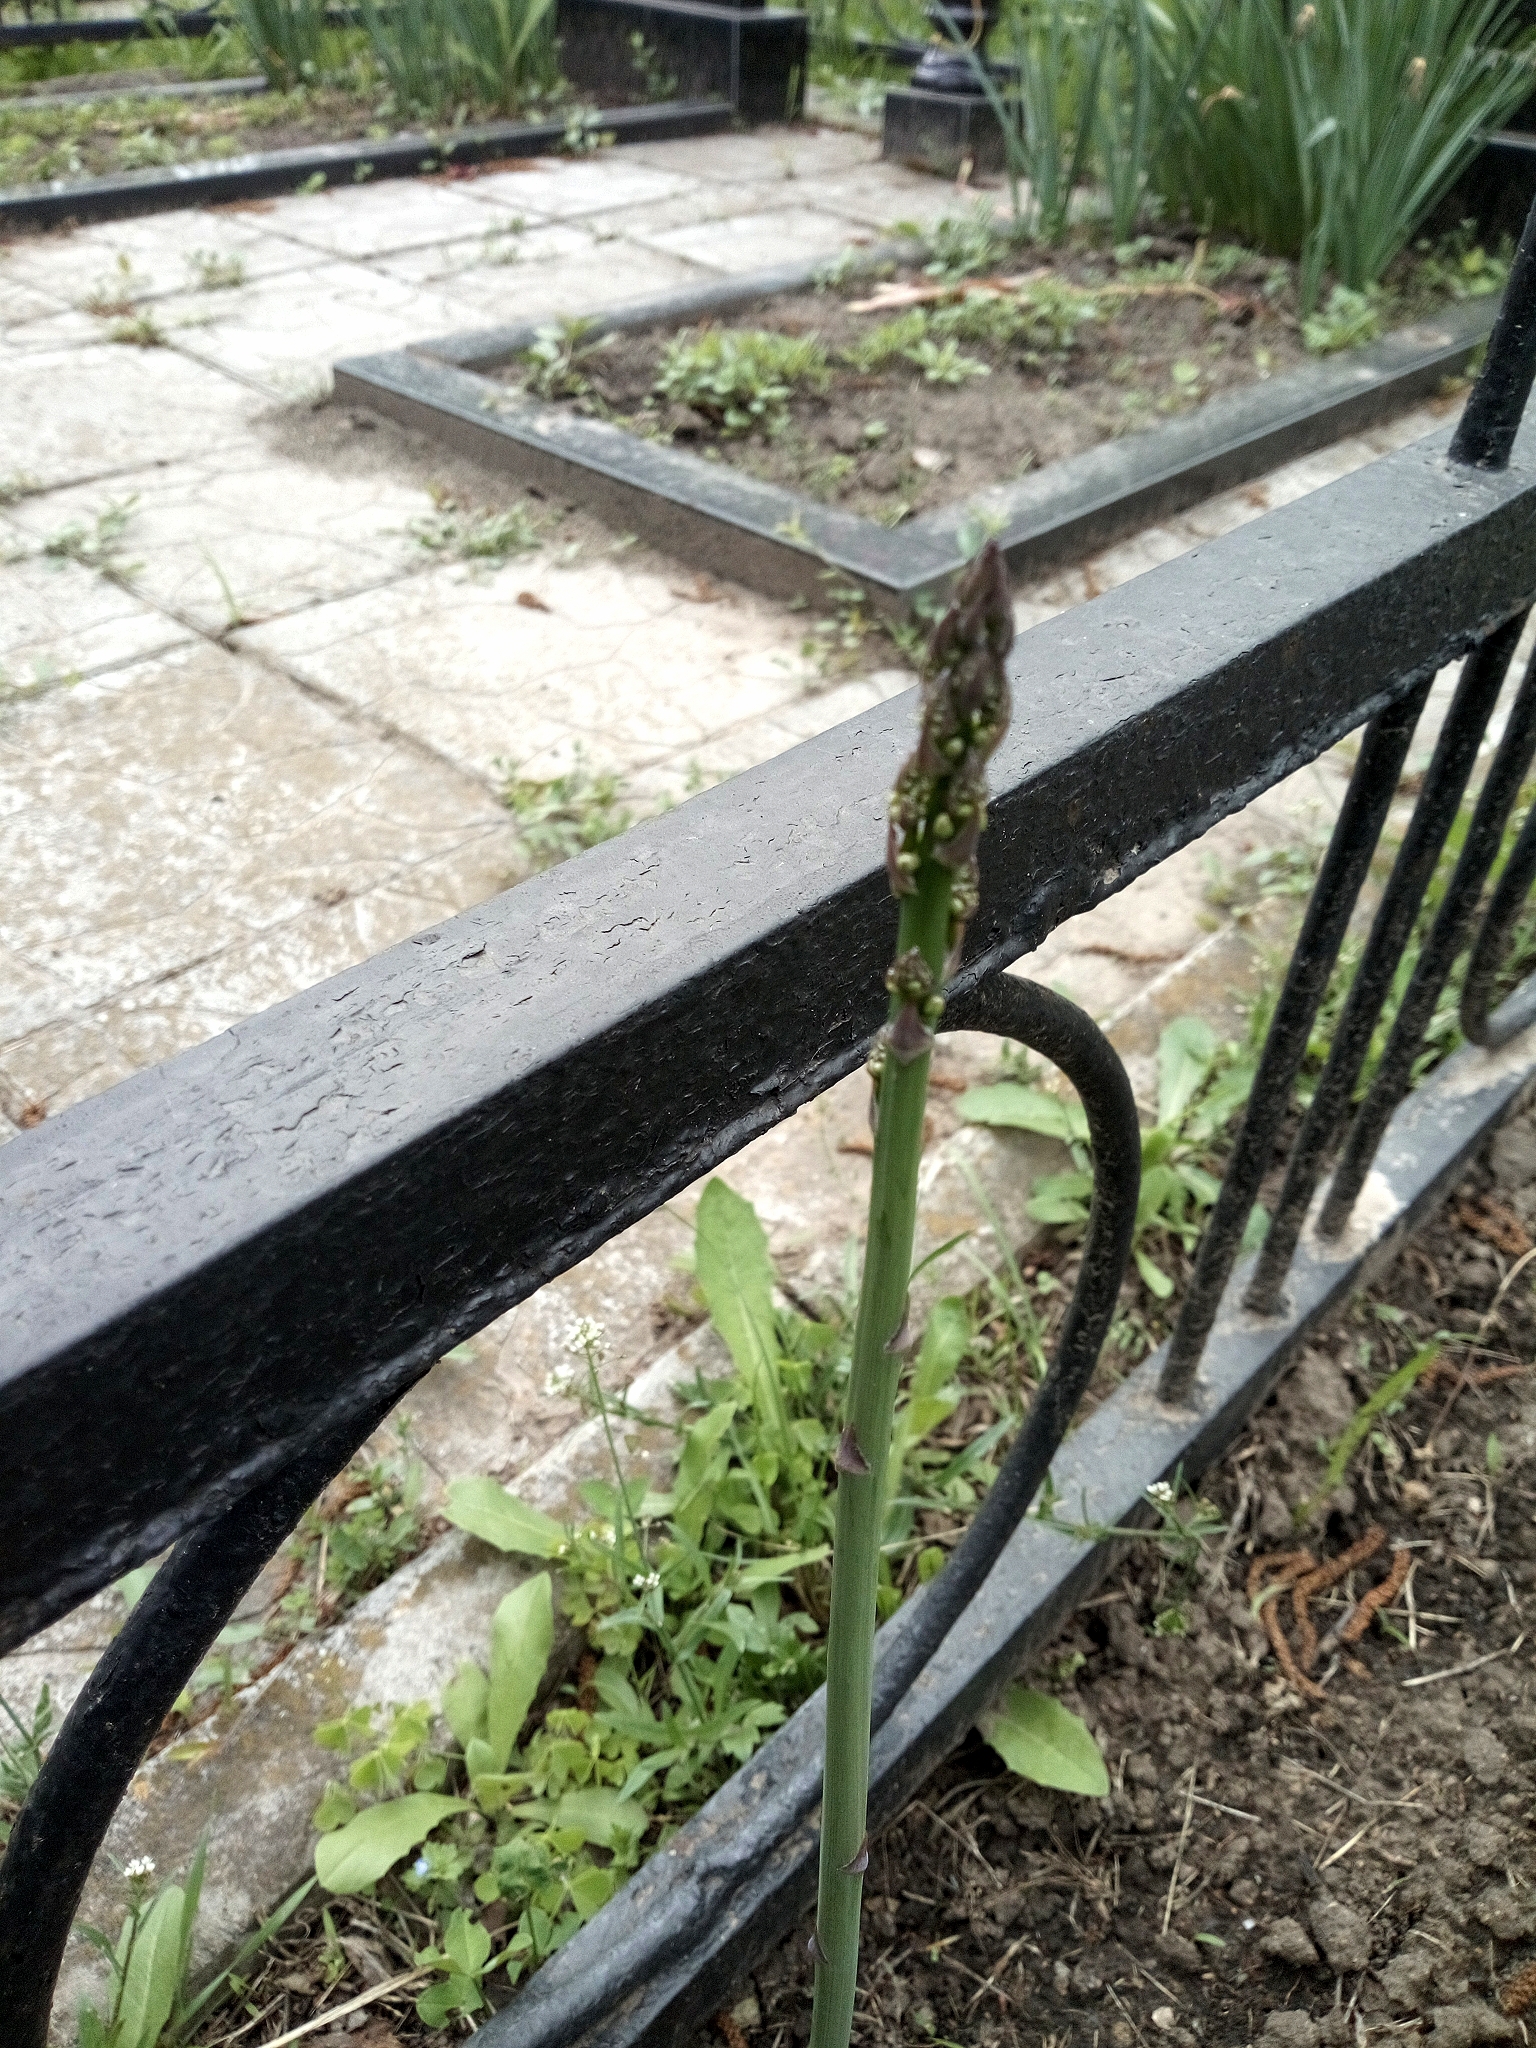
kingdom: Plantae
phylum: Tracheophyta
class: Liliopsida
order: Asparagales
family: Asparagaceae
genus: Asparagus
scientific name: Asparagus officinalis
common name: Garden asparagus
